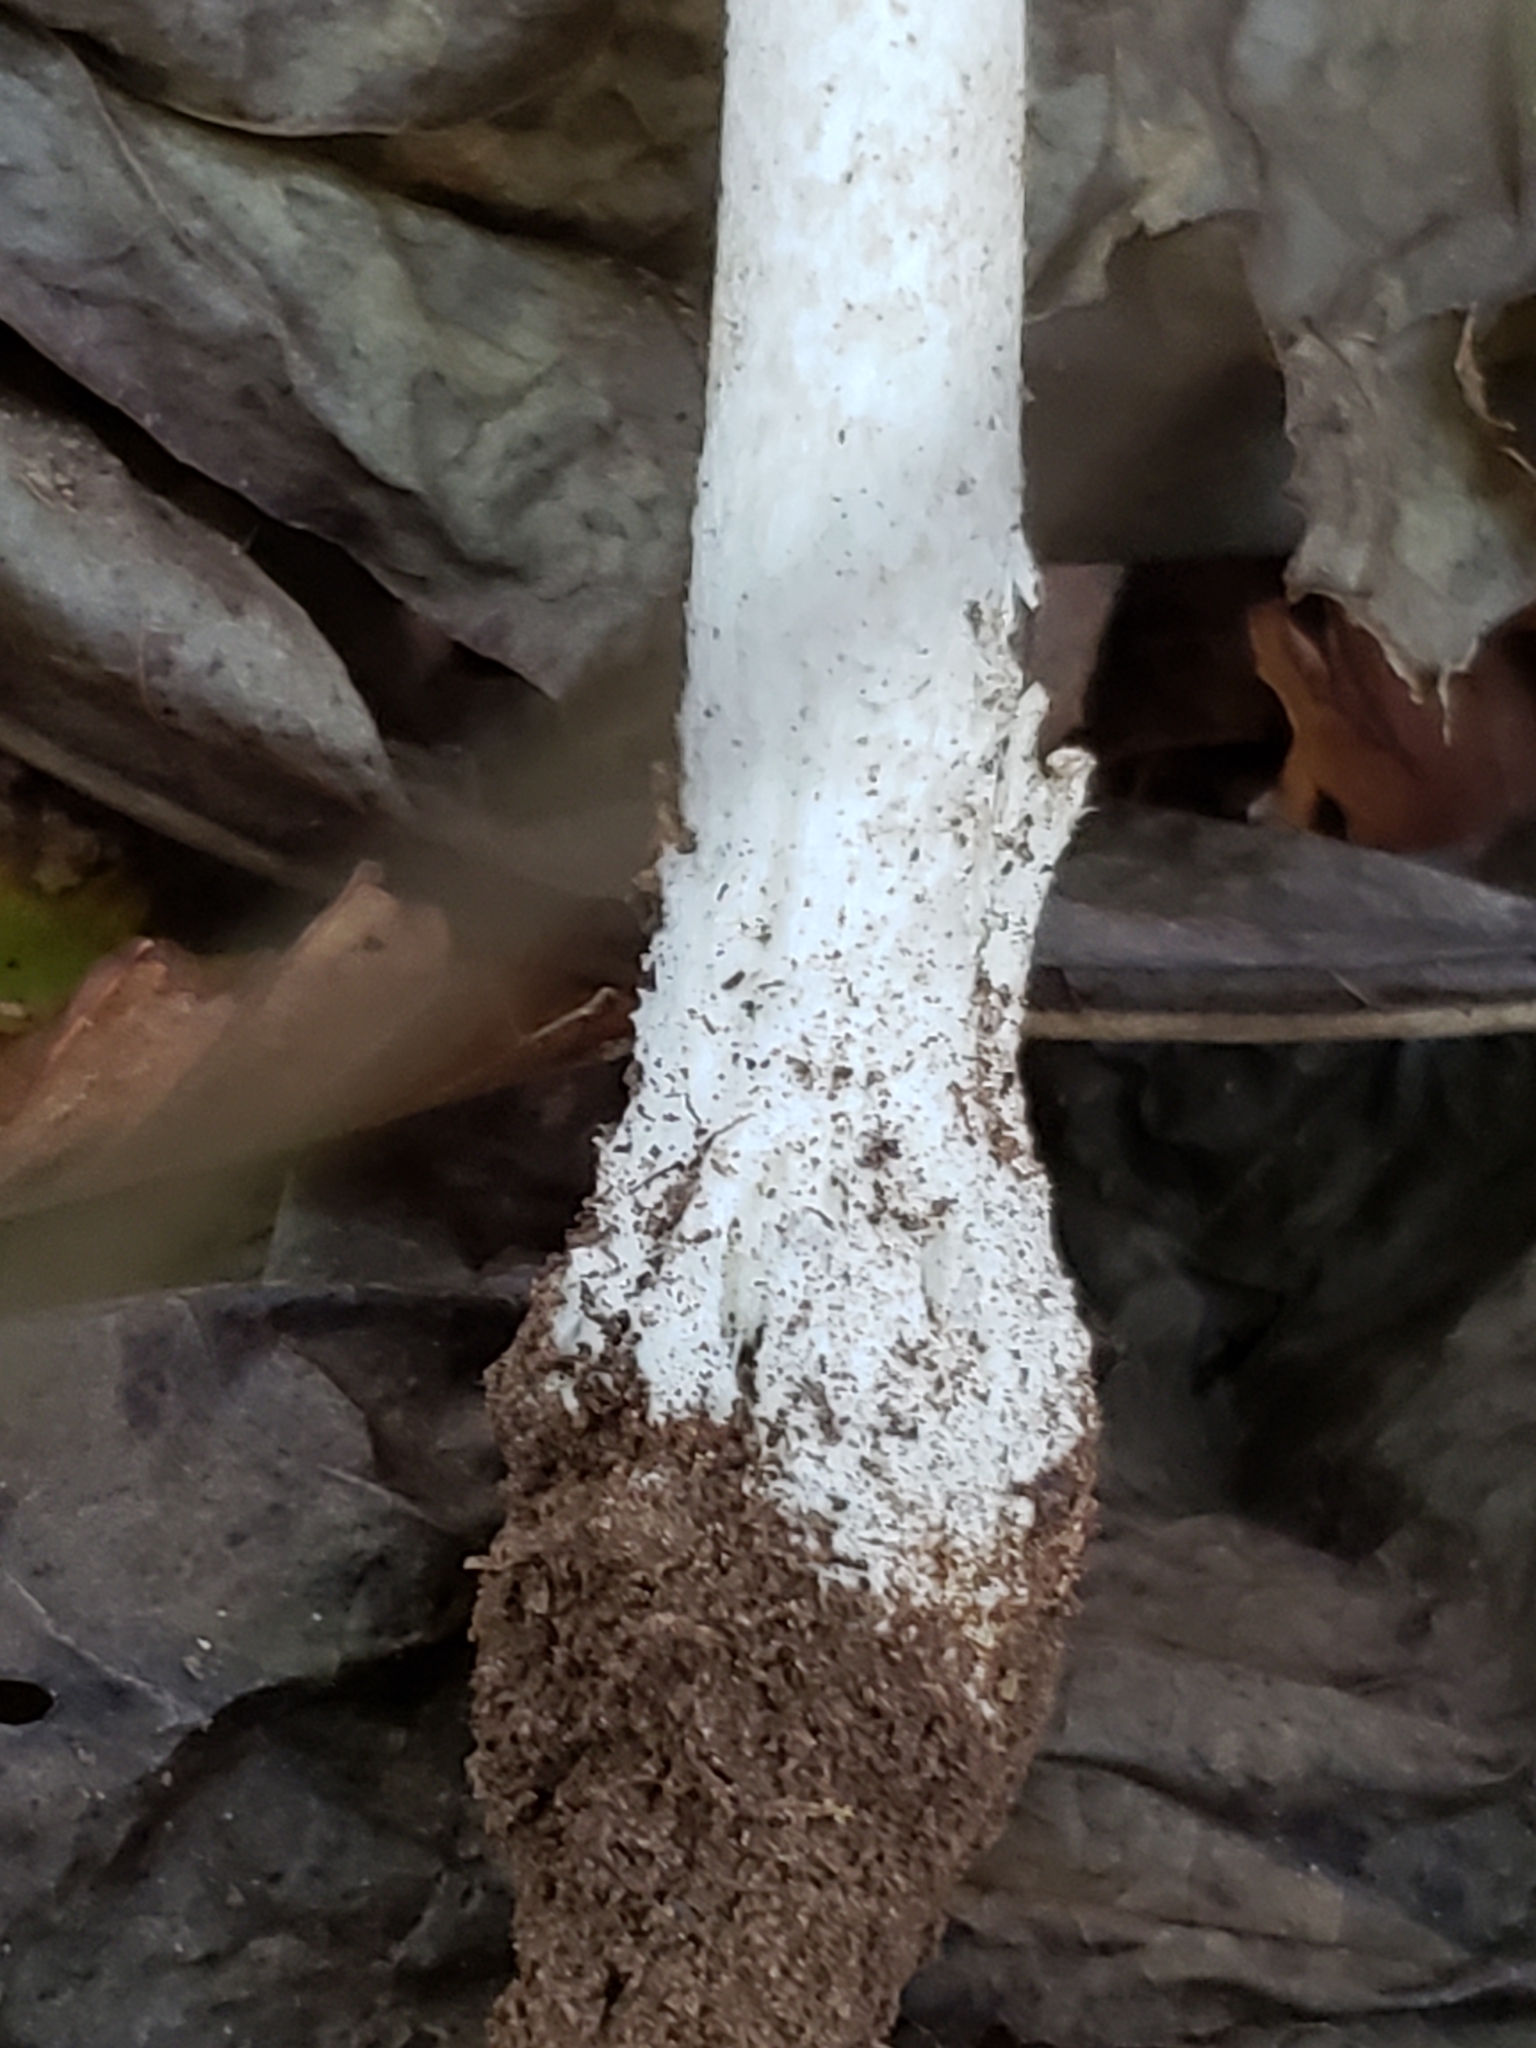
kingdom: Fungi
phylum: Basidiomycota
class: Agaricomycetes
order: Agaricales
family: Amanitaceae
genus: Amanita
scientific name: Amanita brunnescens
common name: Brown american star-footed amanita
